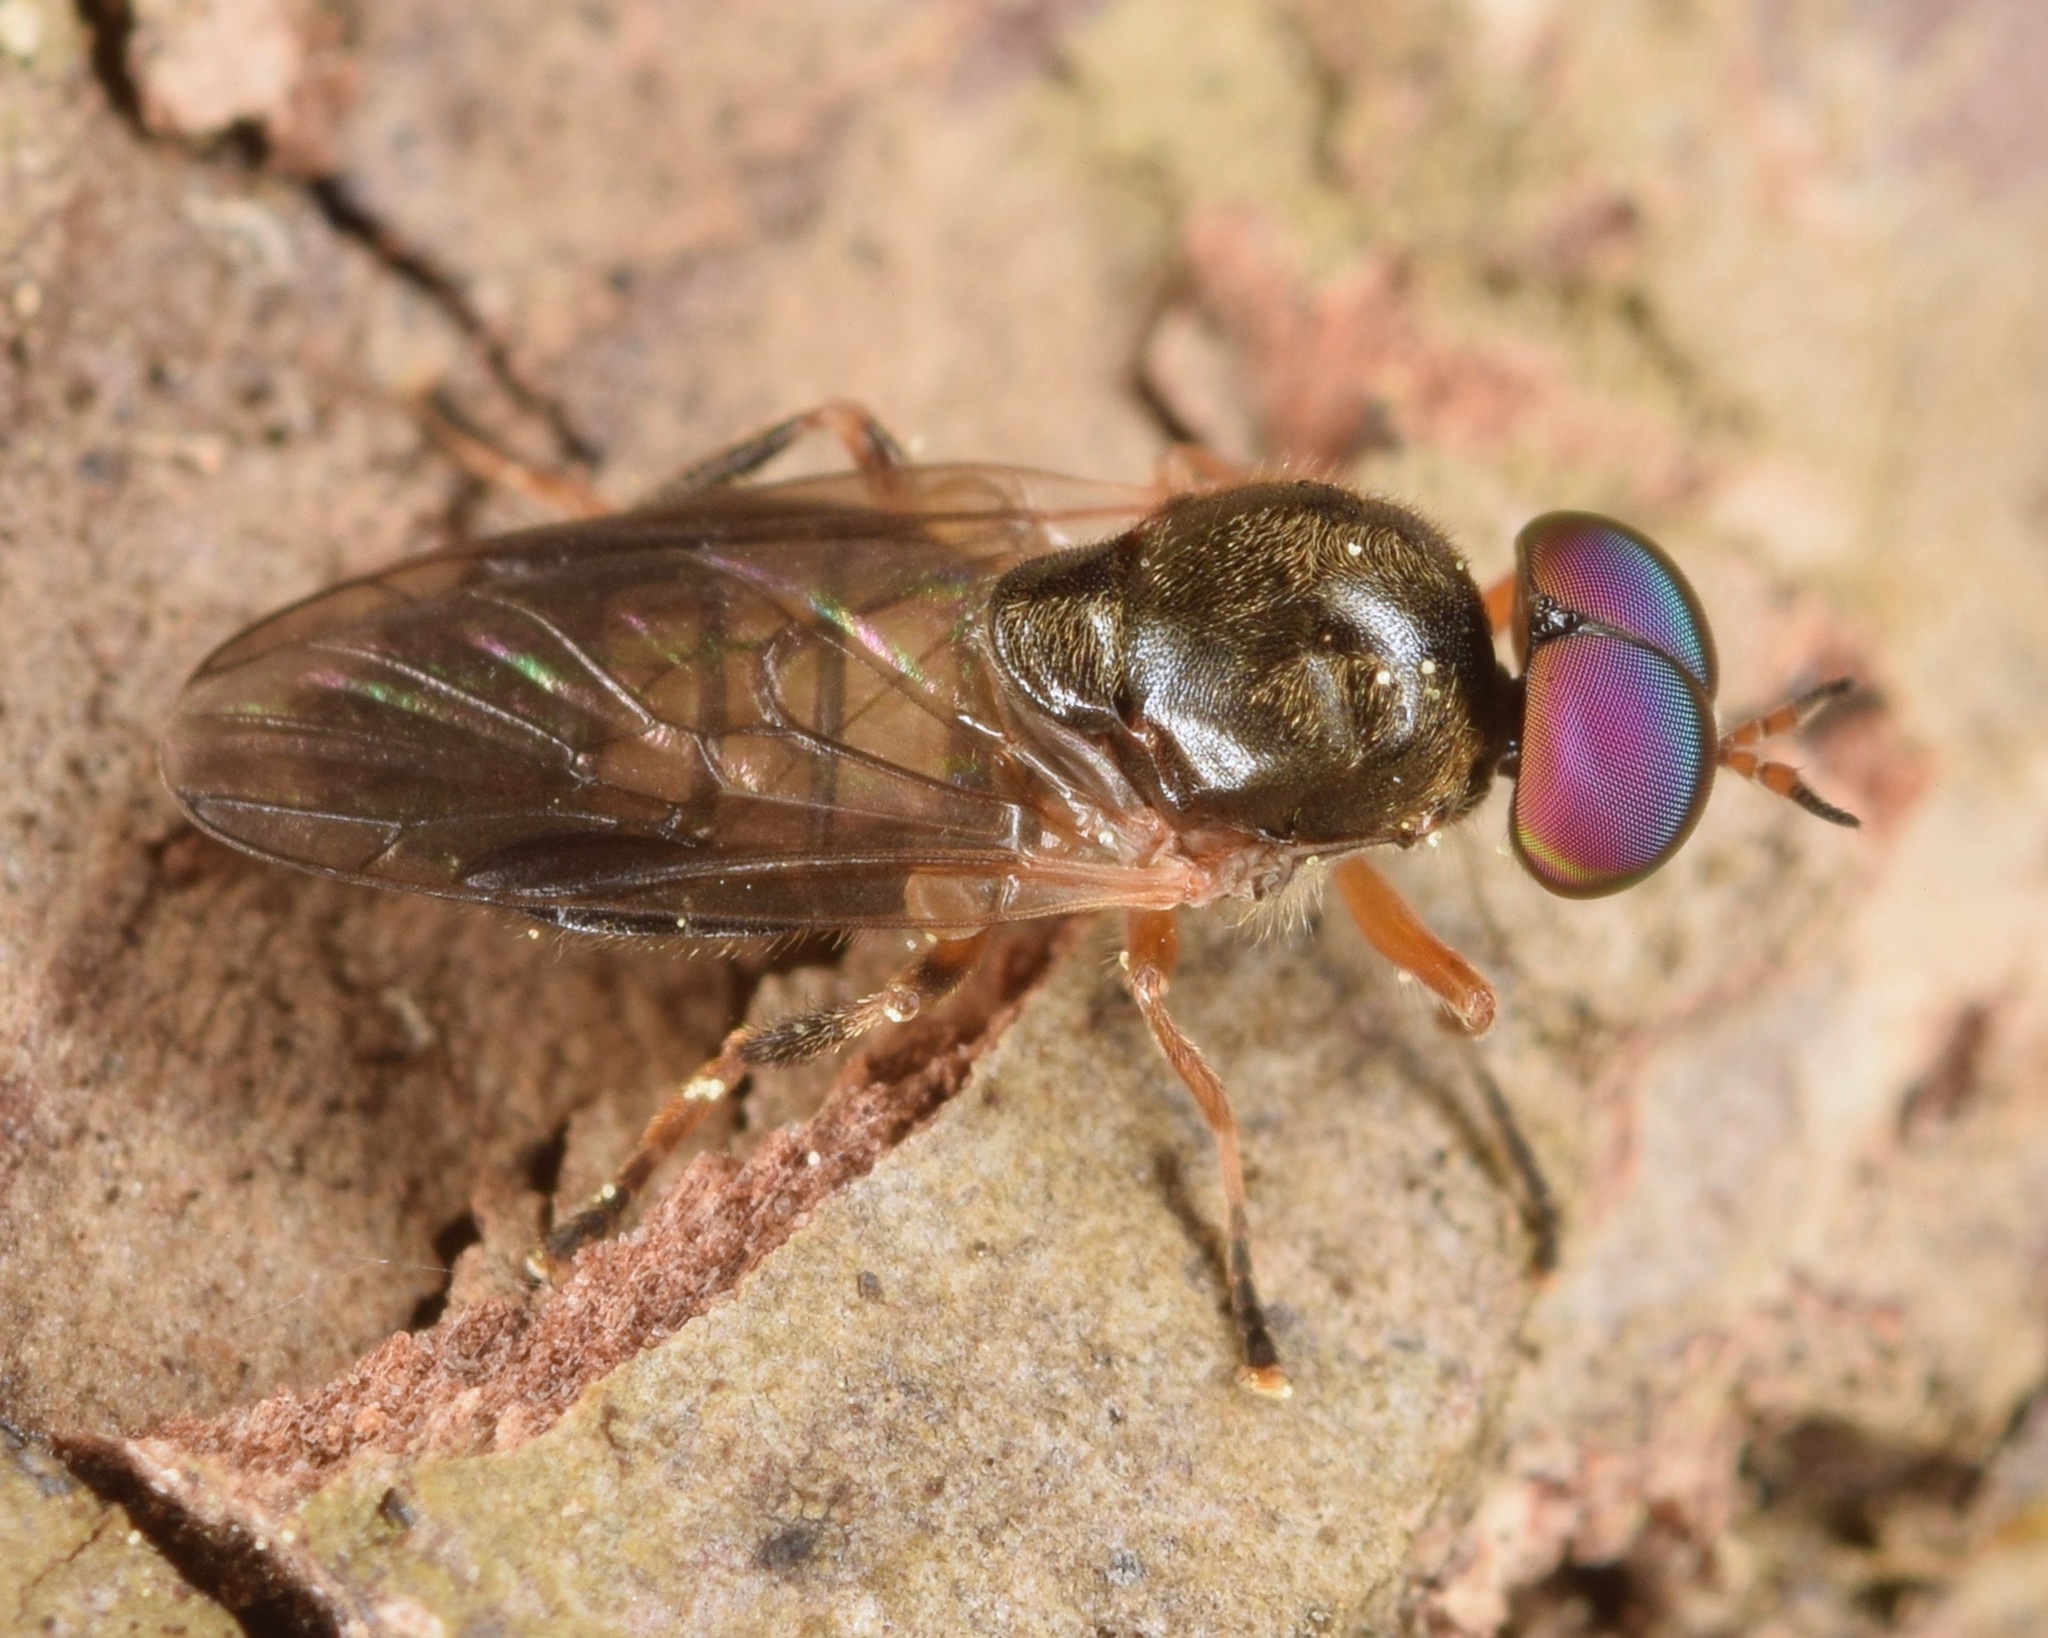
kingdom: Animalia
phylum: Arthropoda
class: Insecta
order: Diptera
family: Stratiomyidae
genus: Allognosta
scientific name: Allognosta fuscitarsis
